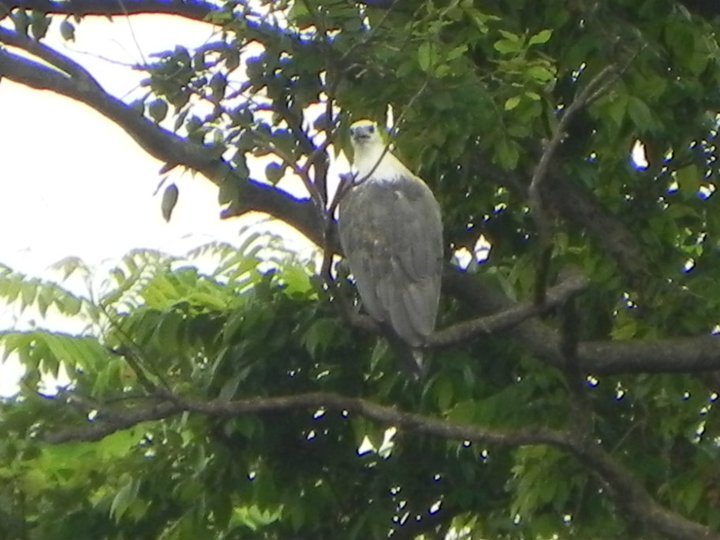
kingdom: Animalia
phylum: Chordata
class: Aves
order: Accipitriformes
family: Accipitridae
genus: Haliaeetus
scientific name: Haliaeetus leucogaster
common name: White-bellied sea eagle
